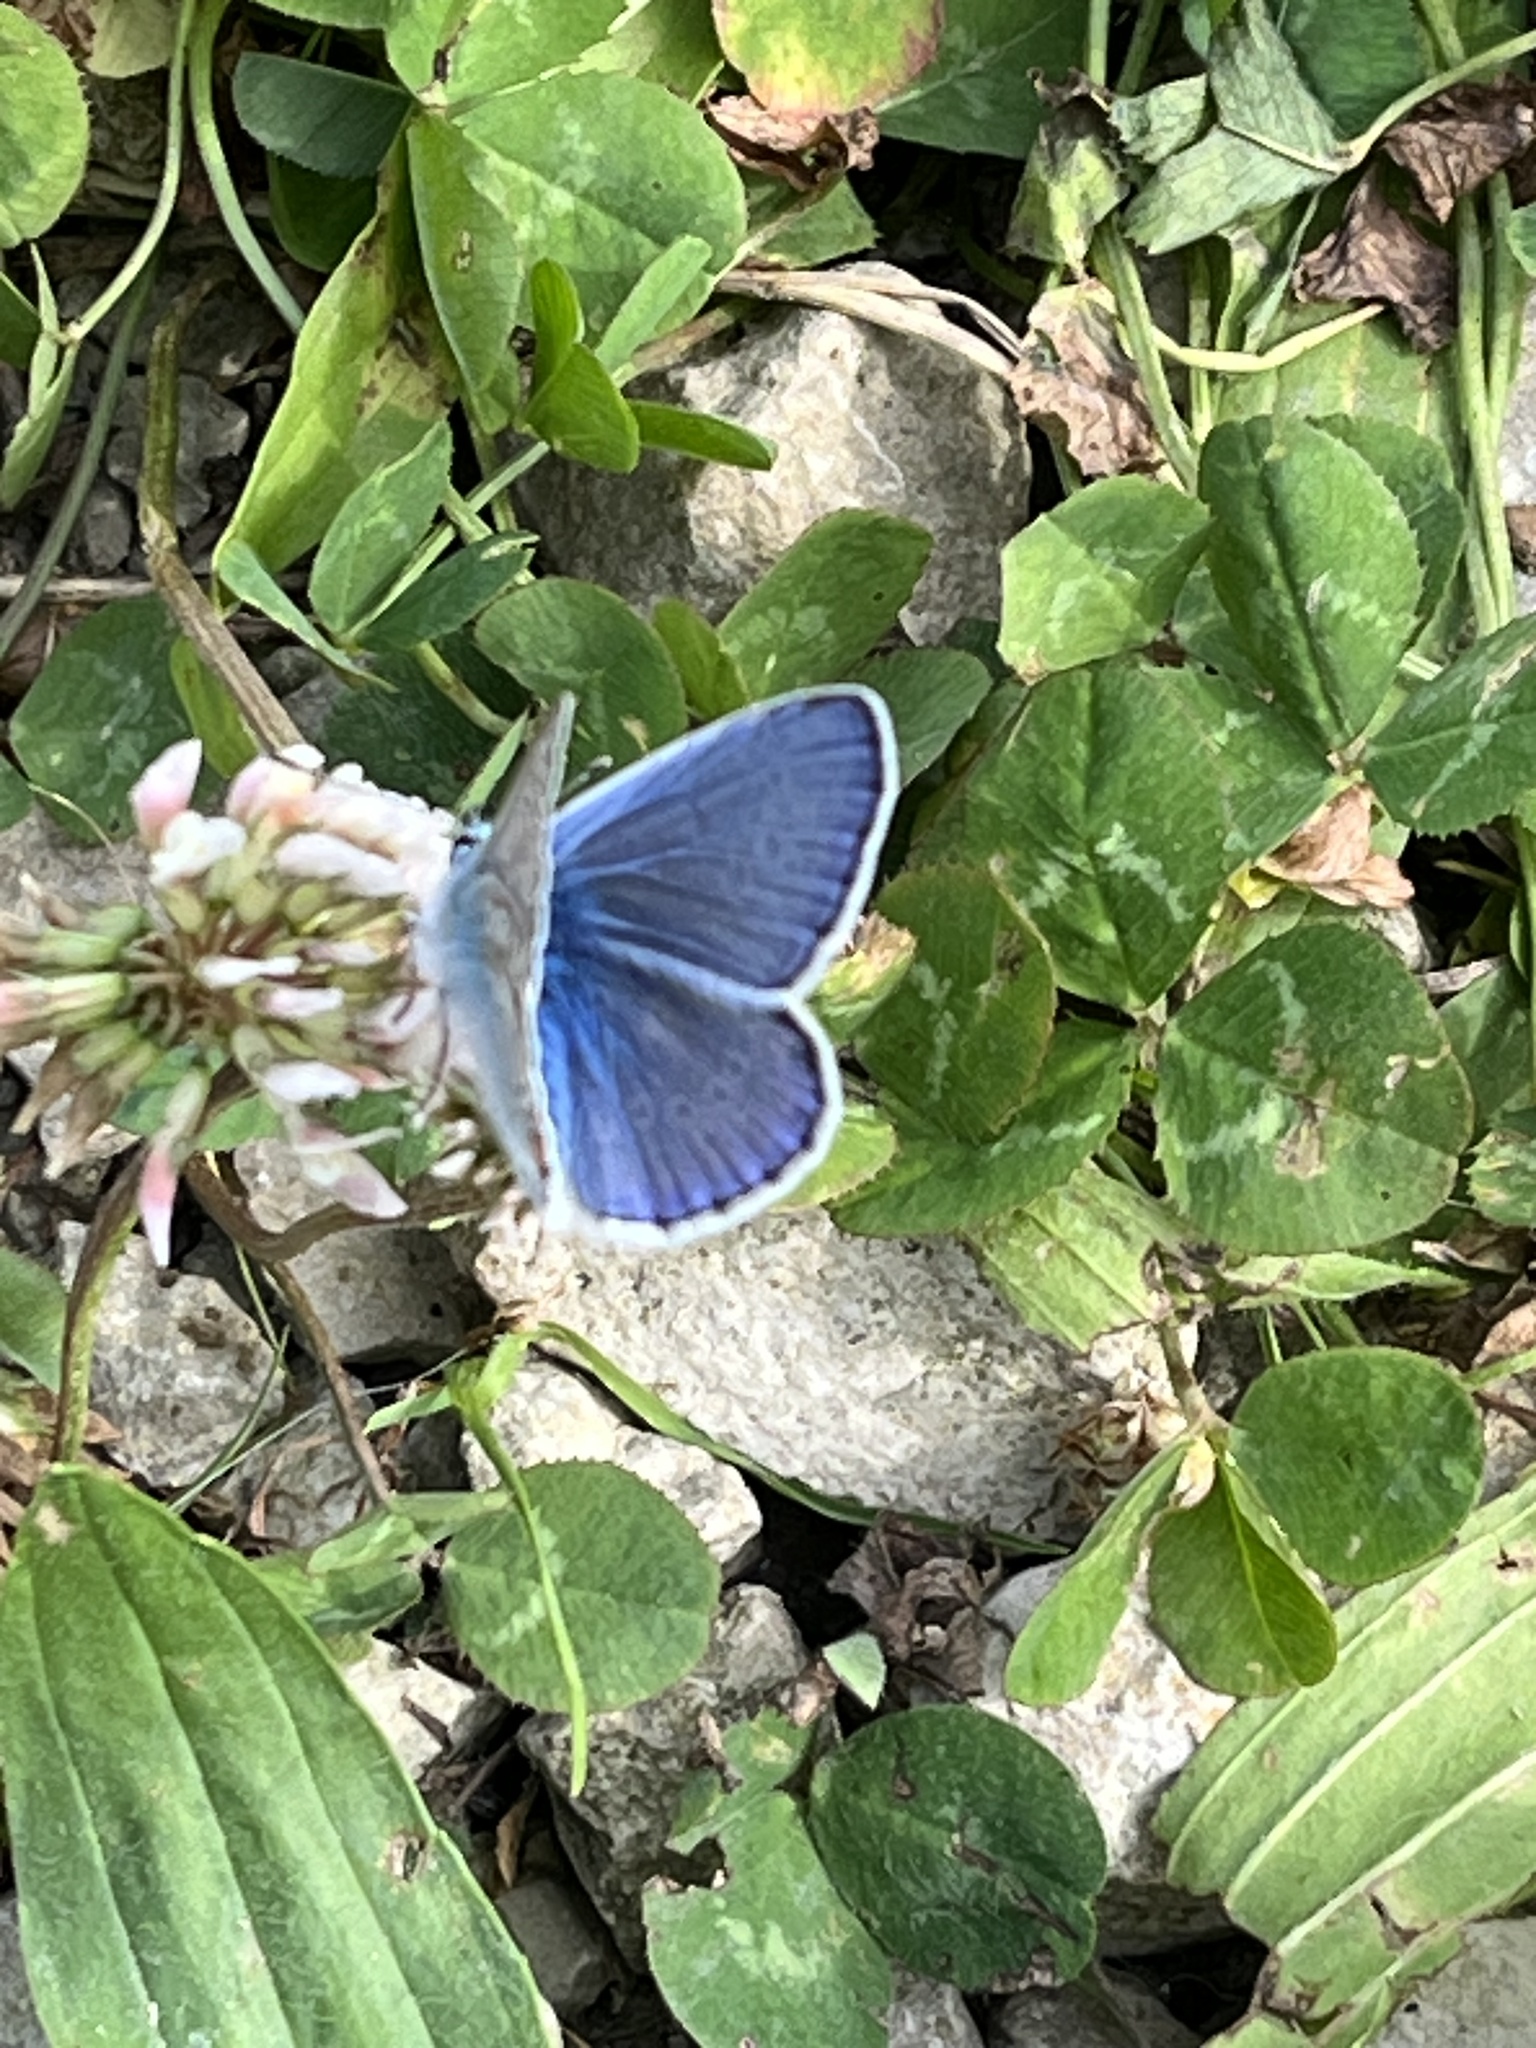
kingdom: Animalia
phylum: Arthropoda
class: Insecta
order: Lepidoptera
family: Lycaenidae
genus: Polyommatus
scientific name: Polyommatus icarus
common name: Common blue
